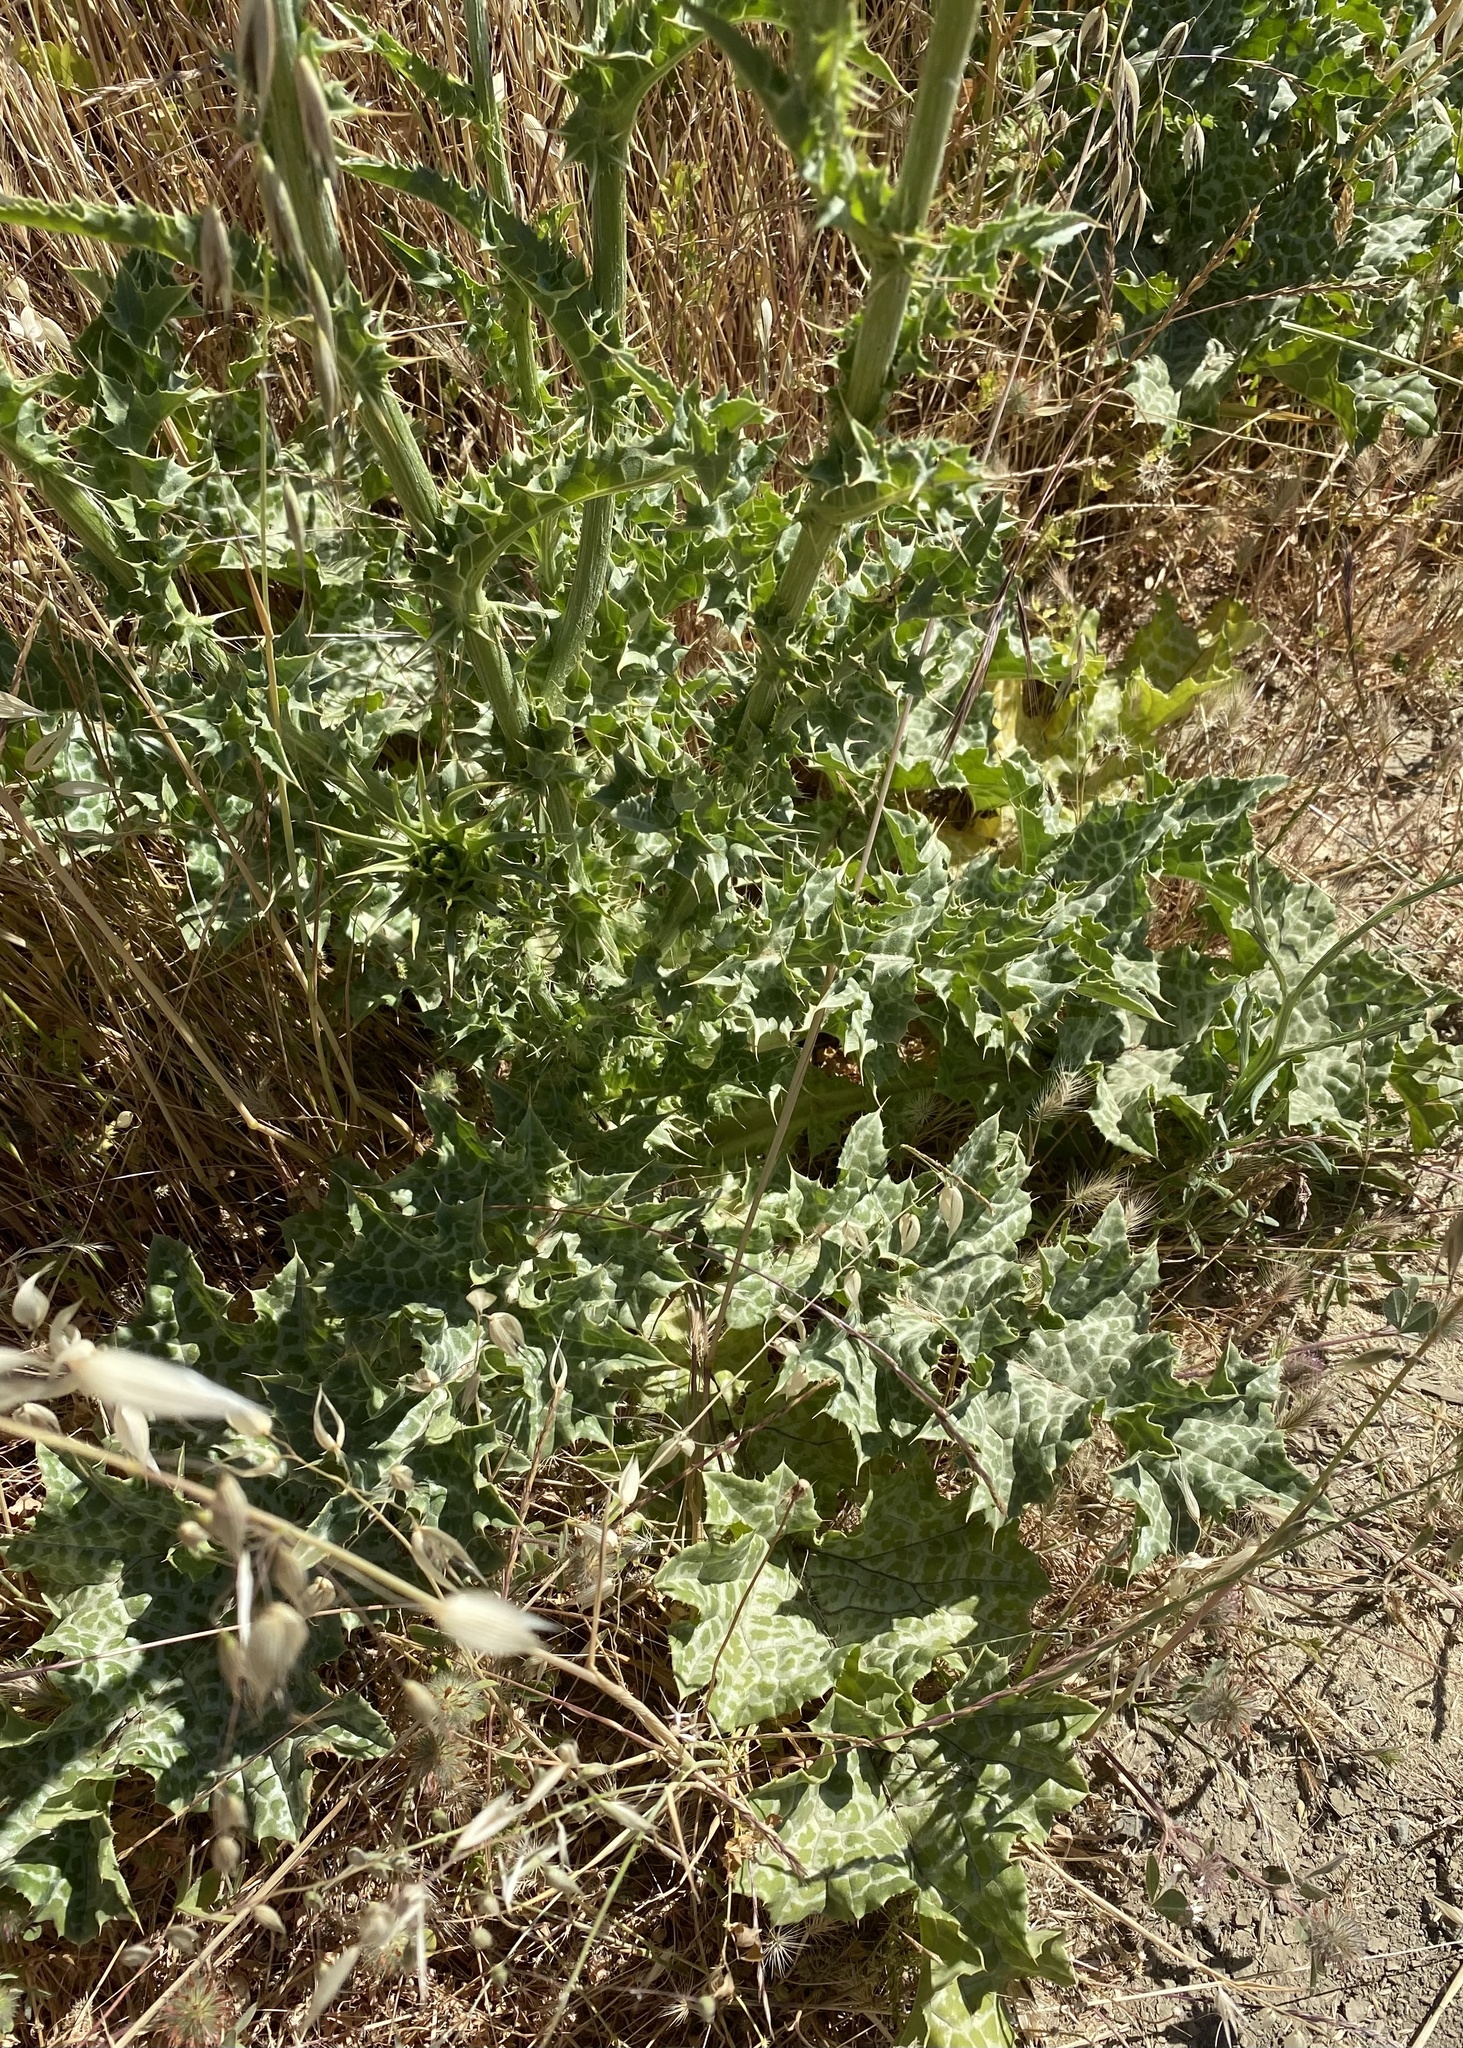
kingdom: Plantae
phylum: Tracheophyta
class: Magnoliopsida
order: Asterales
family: Asteraceae
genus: Silybum
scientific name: Silybum marianum
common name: Milk thistle
